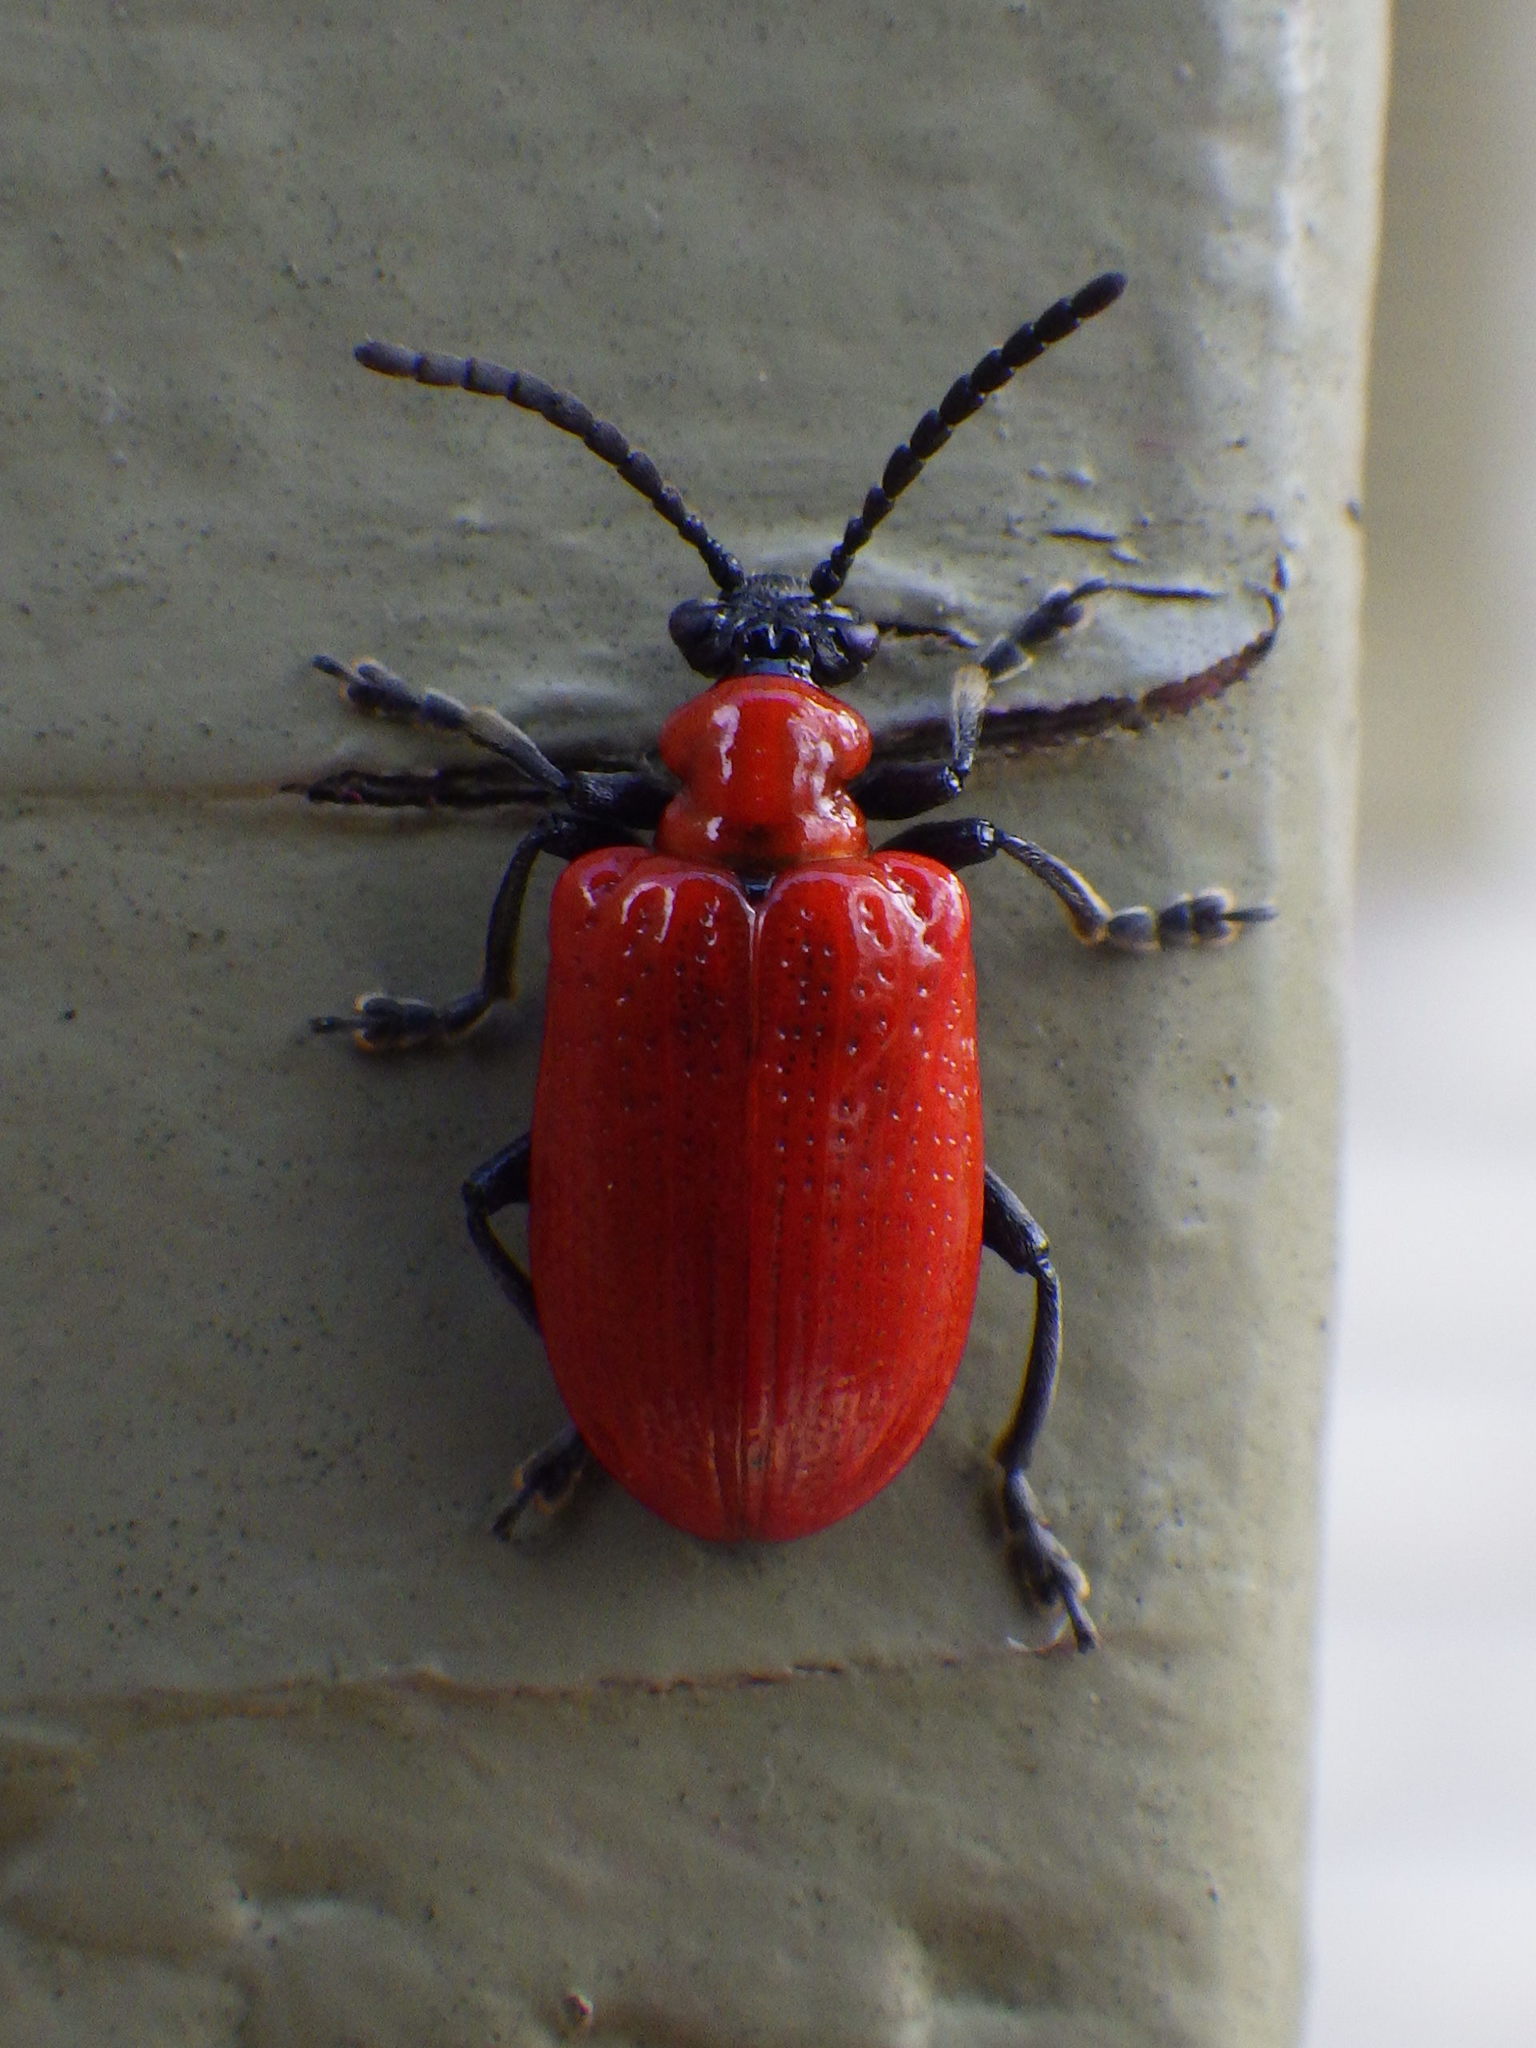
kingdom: Animalia
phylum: Arthropoda
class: Insecta
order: Coleoptera
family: Chrysomelidae
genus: Lilioceris
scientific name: Lilioceris lilii
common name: Lily beetle
